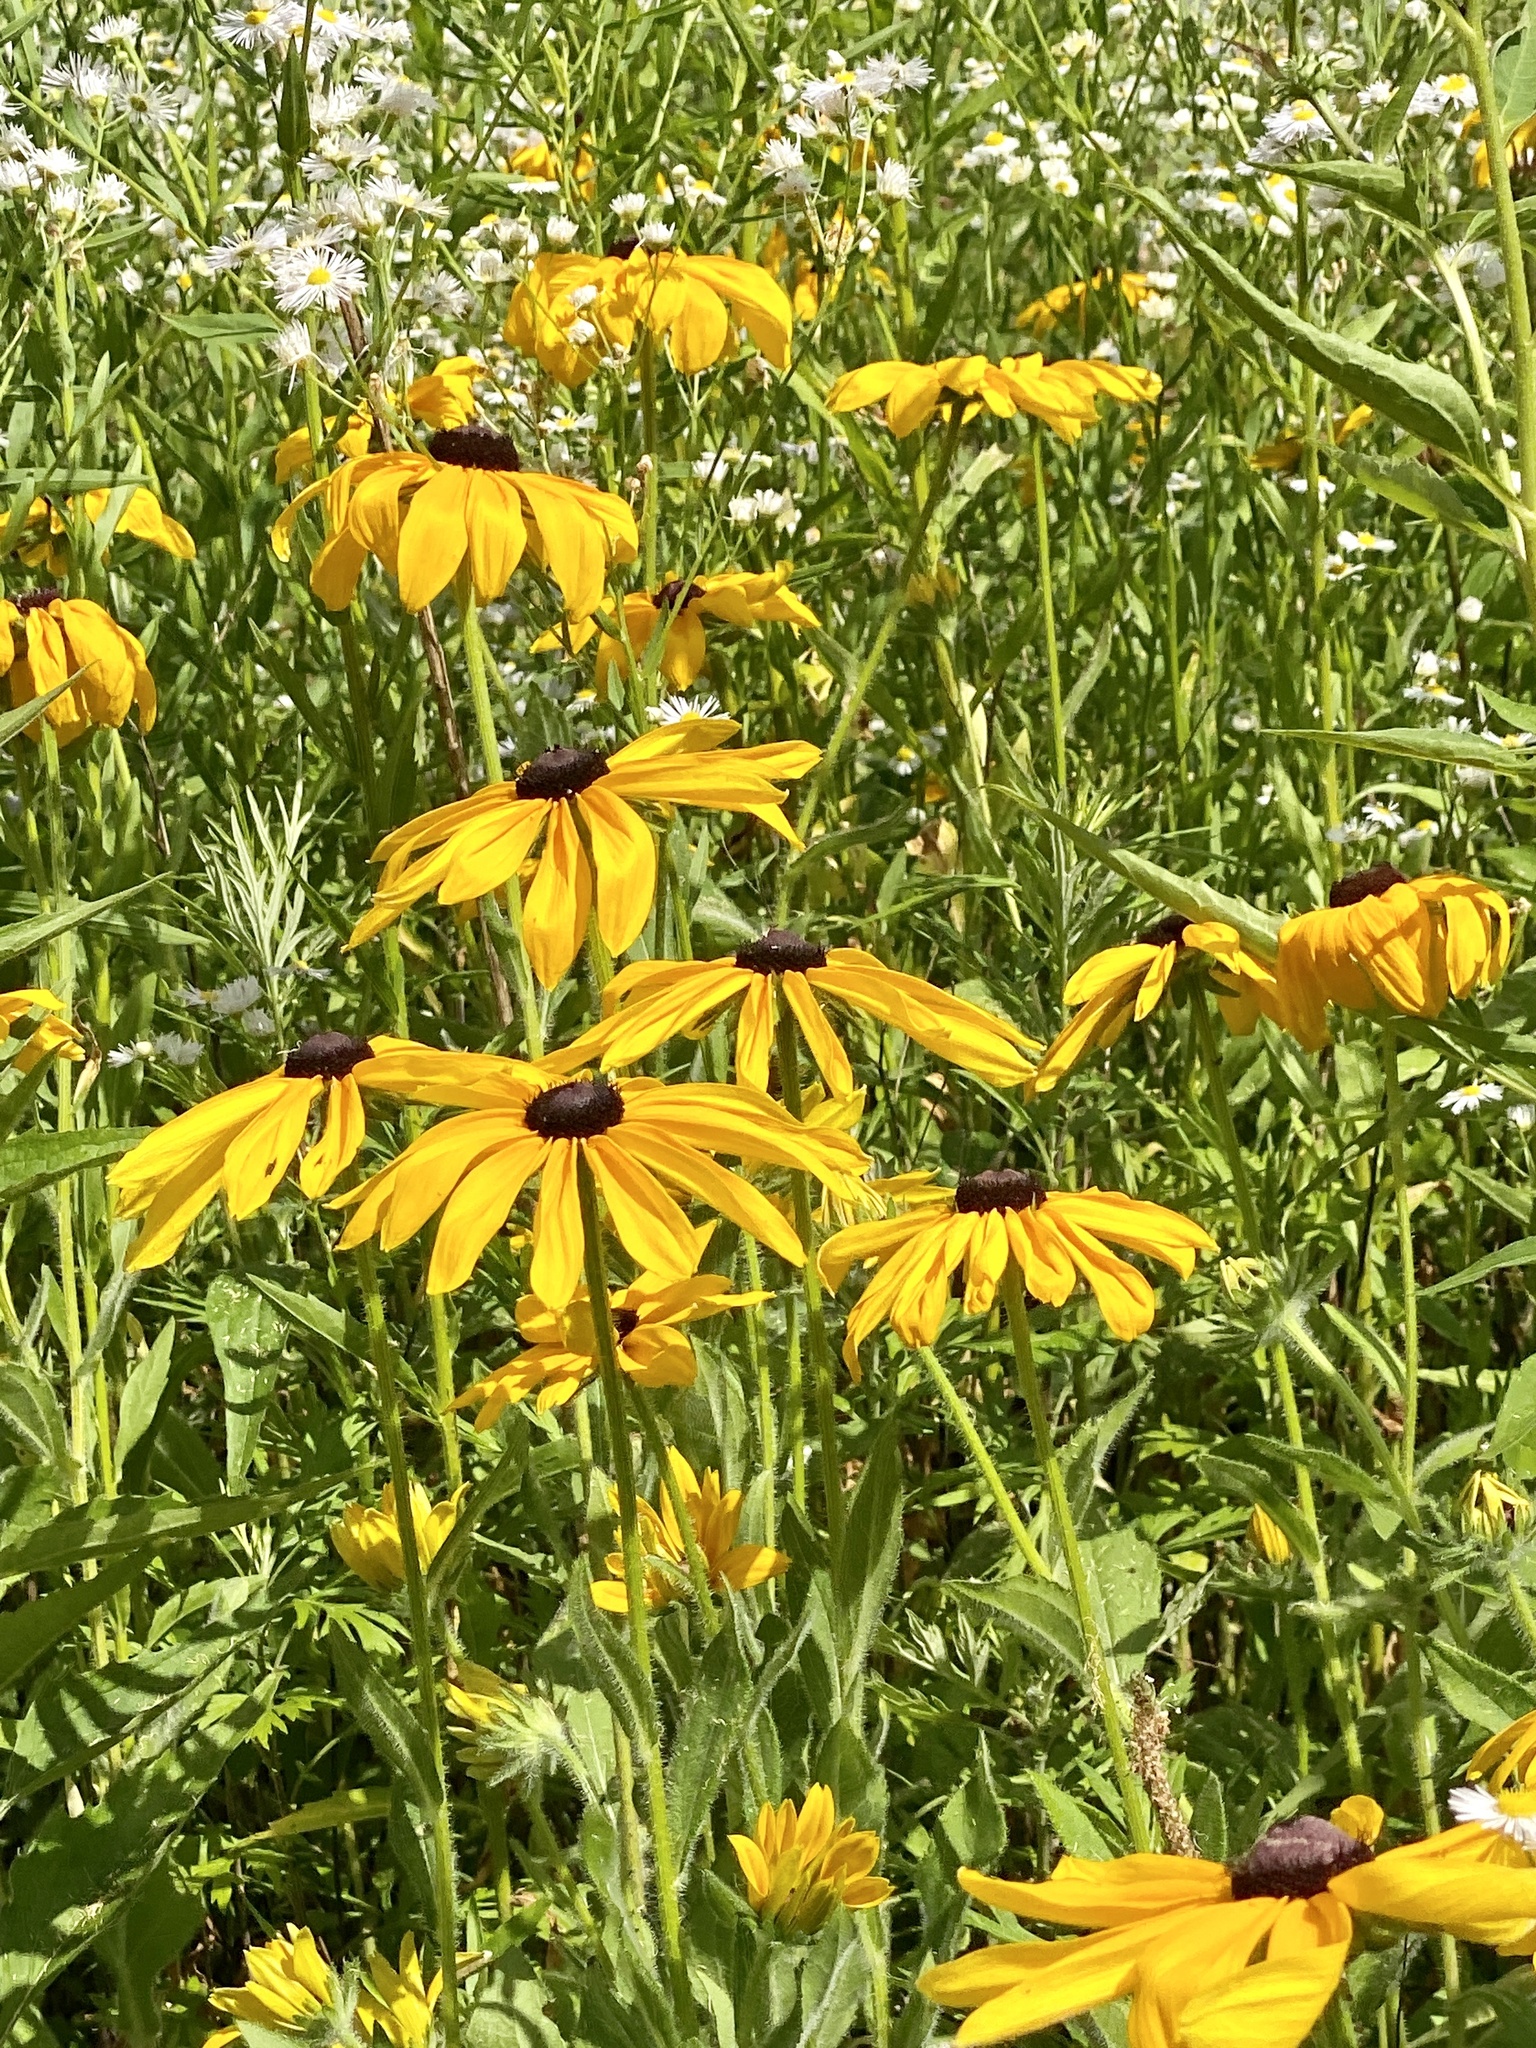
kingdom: Plantae
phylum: Tracheophyta
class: Magnoliopsida
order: Asterales
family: Asteraceae
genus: Rudbeckia
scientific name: Rudbeckia hirta
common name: Black-eyed-susan
